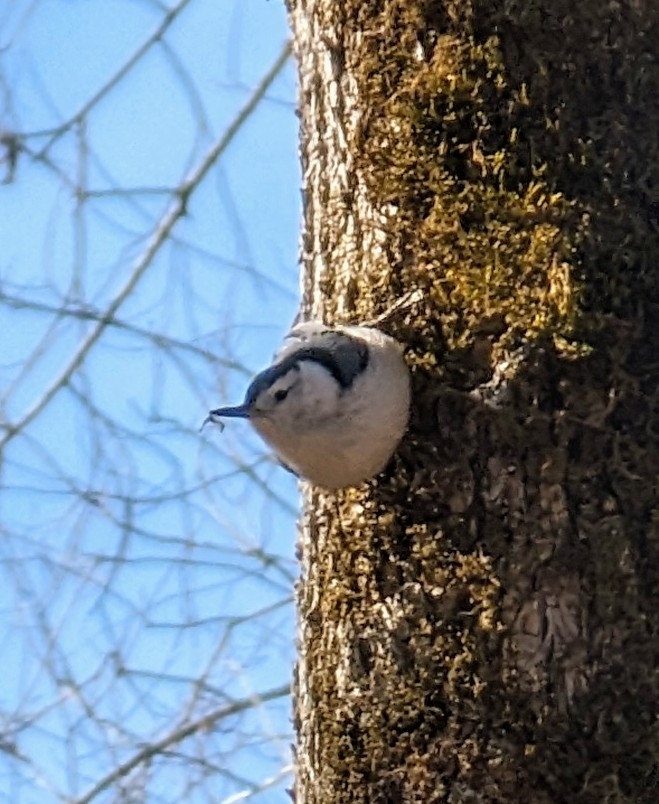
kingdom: Animalia
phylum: Chordata
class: Aves
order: Passeriformes
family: Sittidae
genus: Sitta
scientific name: Sitta carolinensis
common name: White-breasted nuthatch
